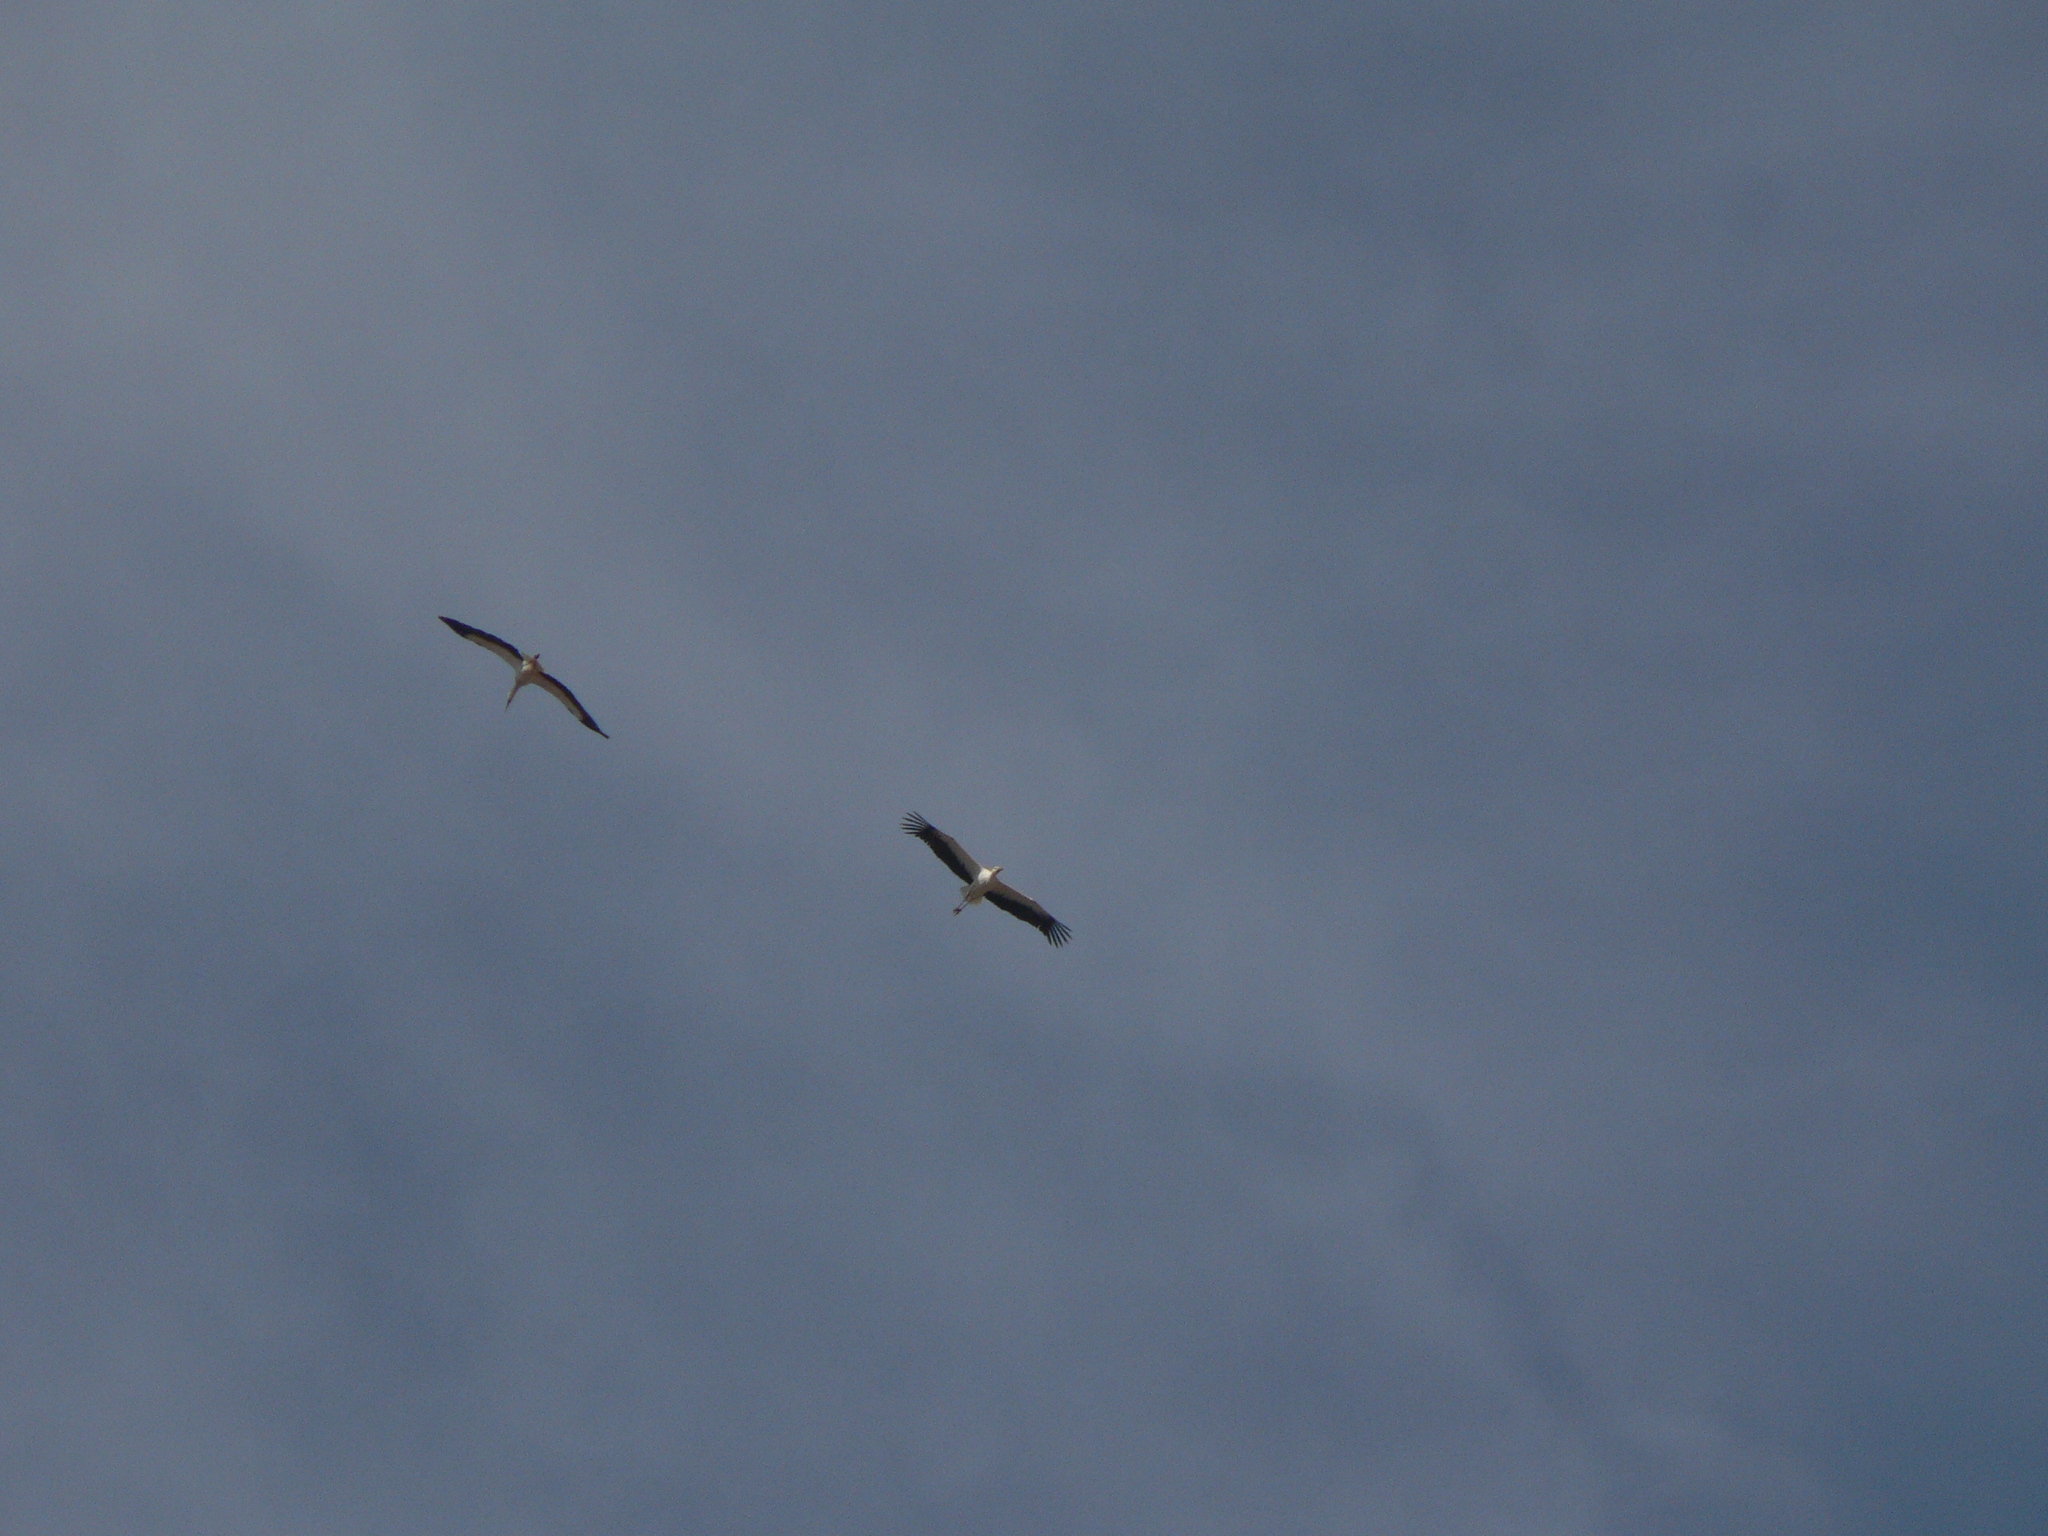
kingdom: Animalia
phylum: Chordata
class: Aves
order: Ciconiiformes
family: Ciconiidae
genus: Ciconia
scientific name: Ciconia ciconia
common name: White stork
